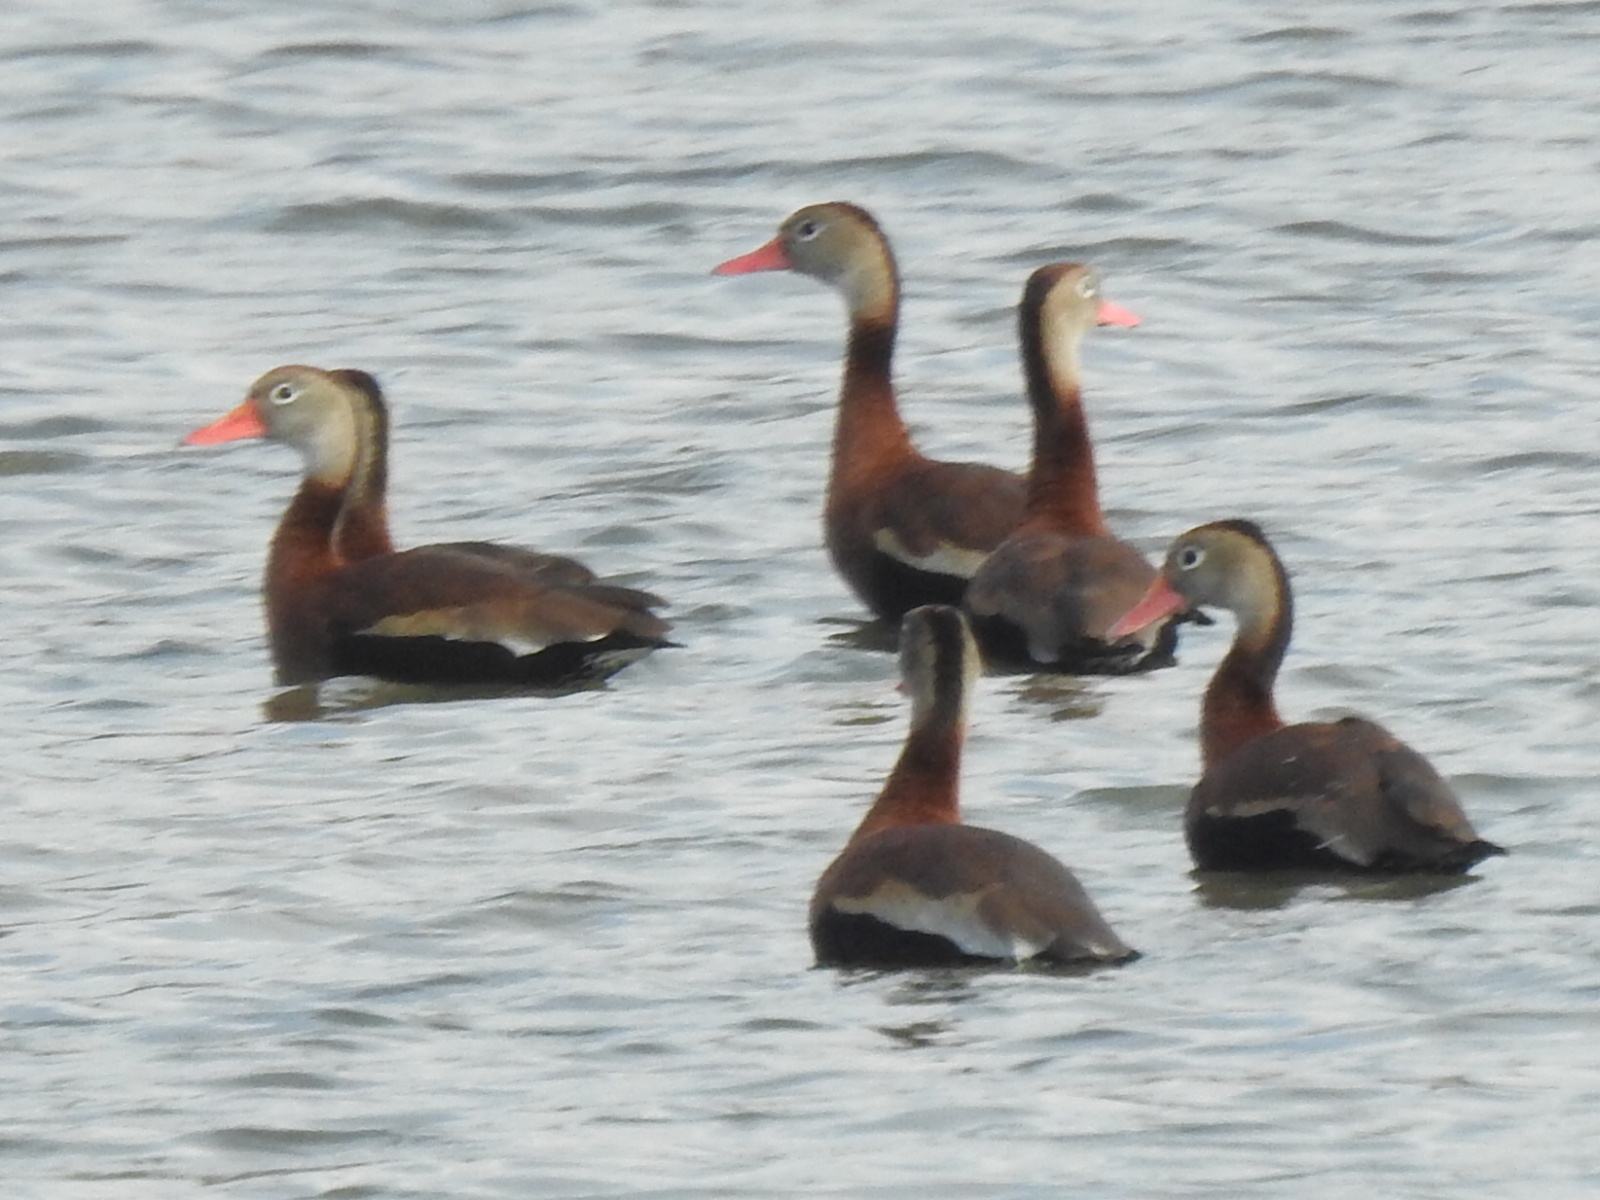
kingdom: Animalia
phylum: Chordata
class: Aves
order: Anseriformes
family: Anatidae
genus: Dendrocygna
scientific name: Dendrocygna autumnalis
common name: Black-bellied whistling duck
